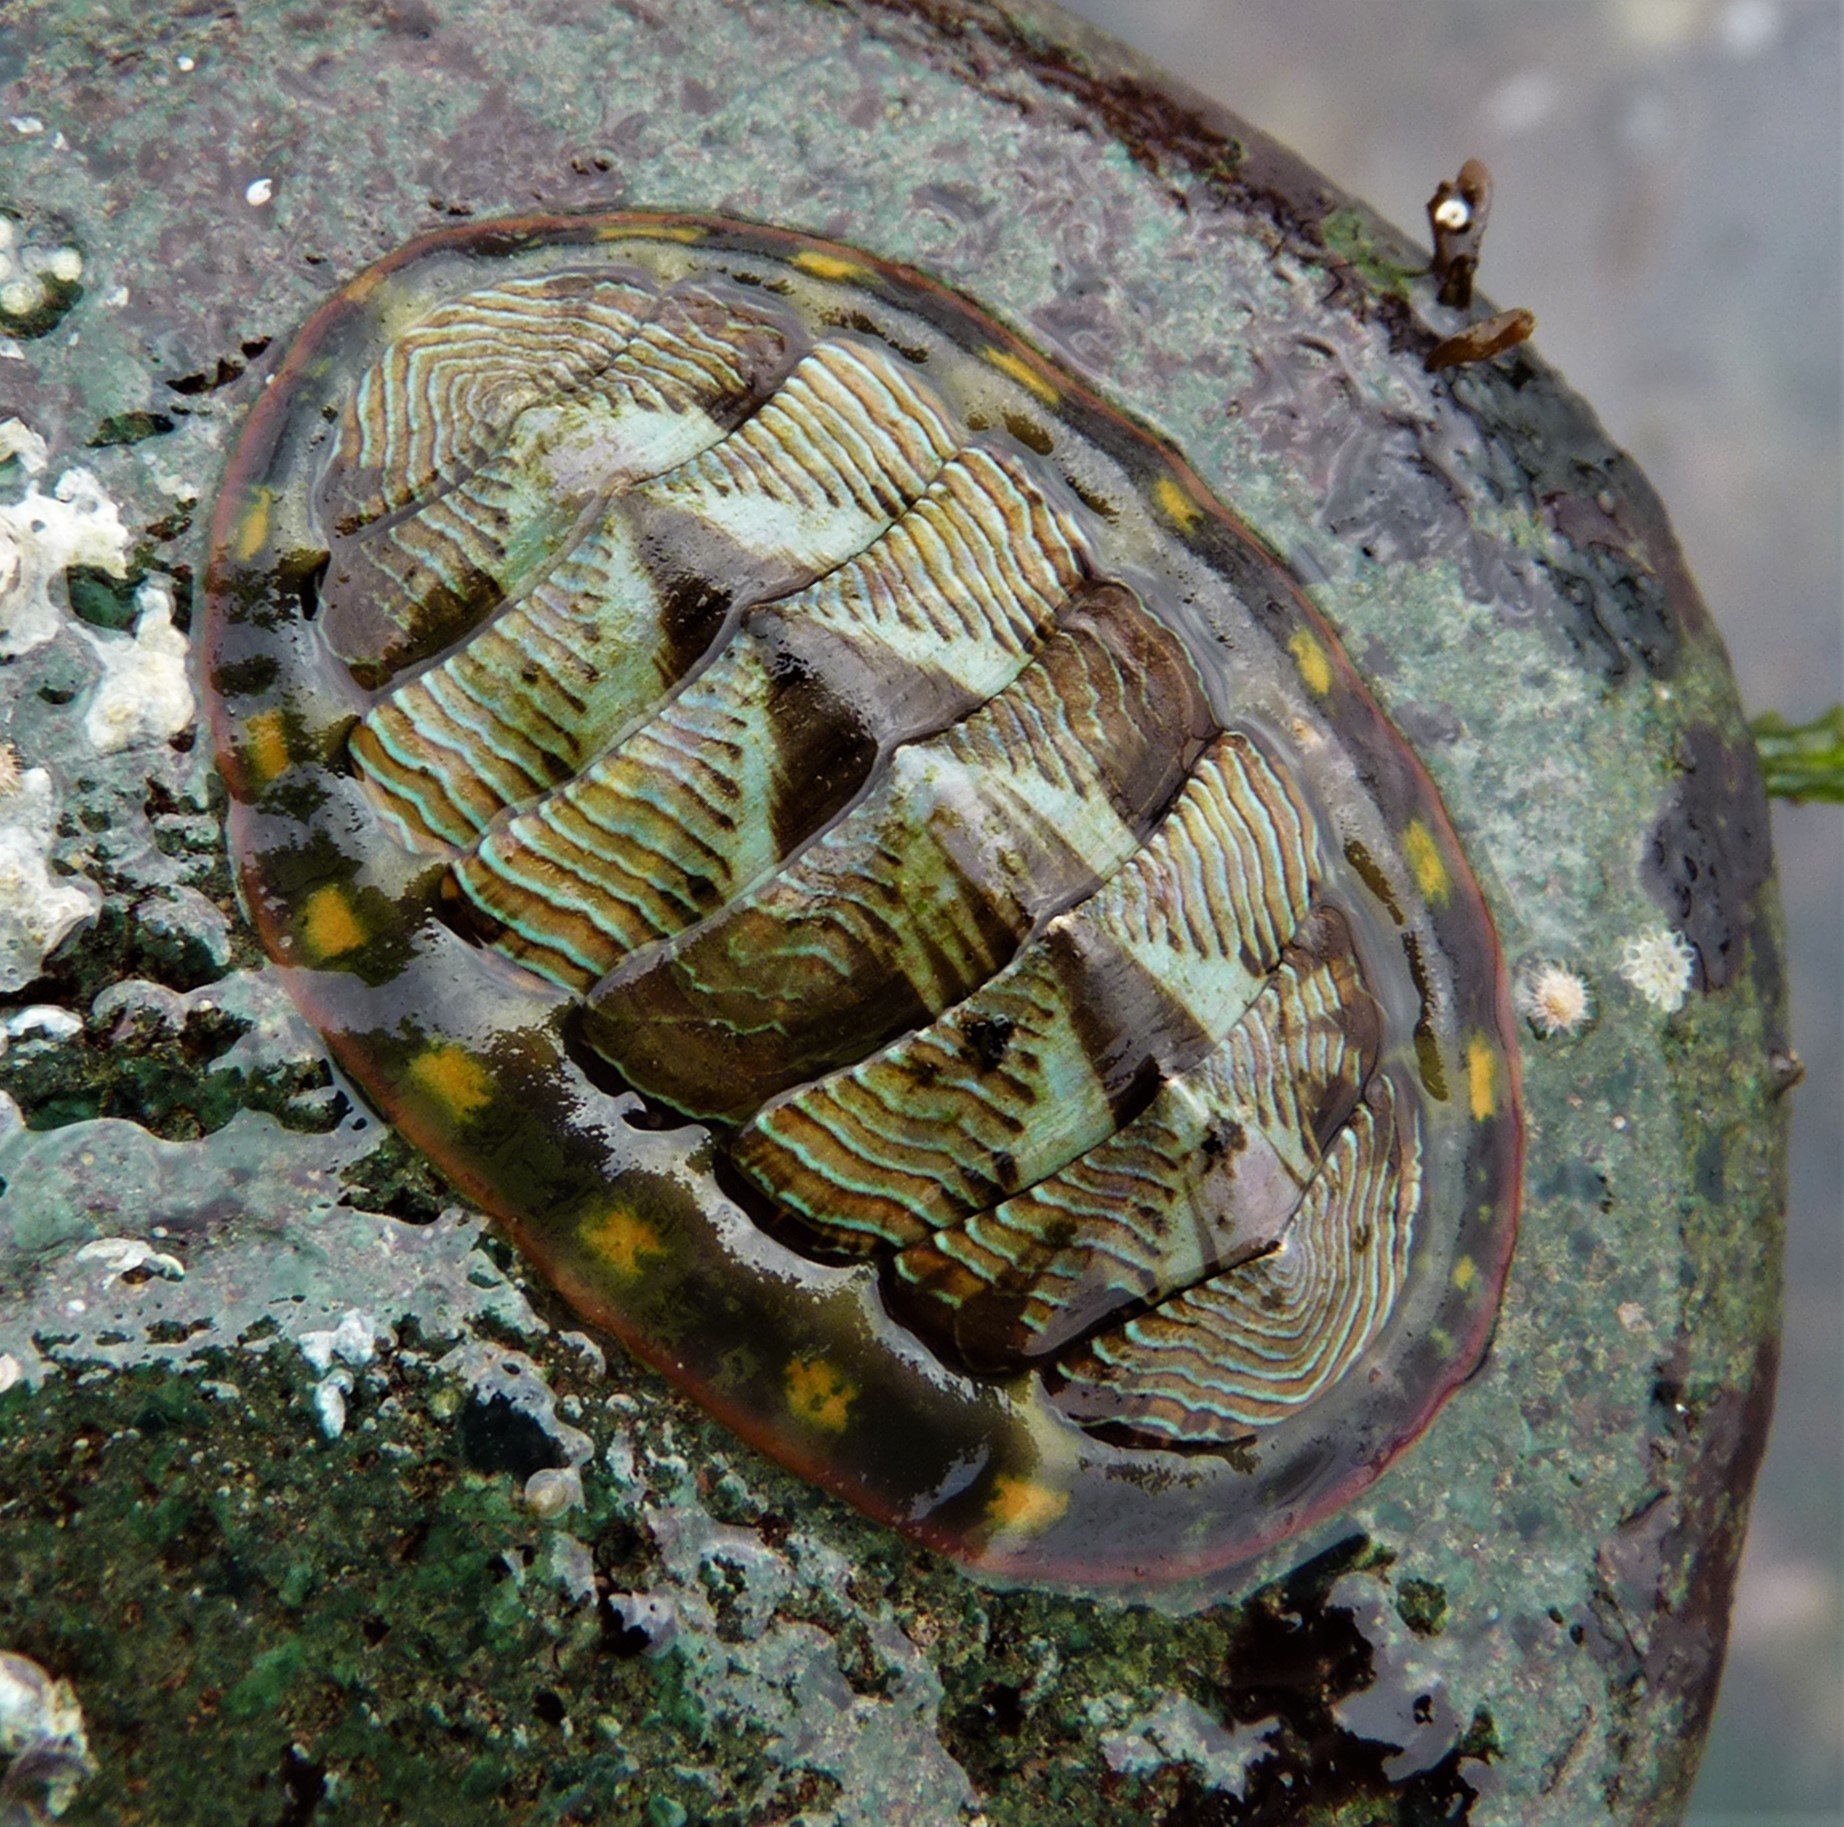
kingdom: Animalia
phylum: Mollusca
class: Polyplacophora
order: Chitonida
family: Tonicellidae
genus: Tonicella
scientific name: Tonicella lineata
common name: Lined chiton
